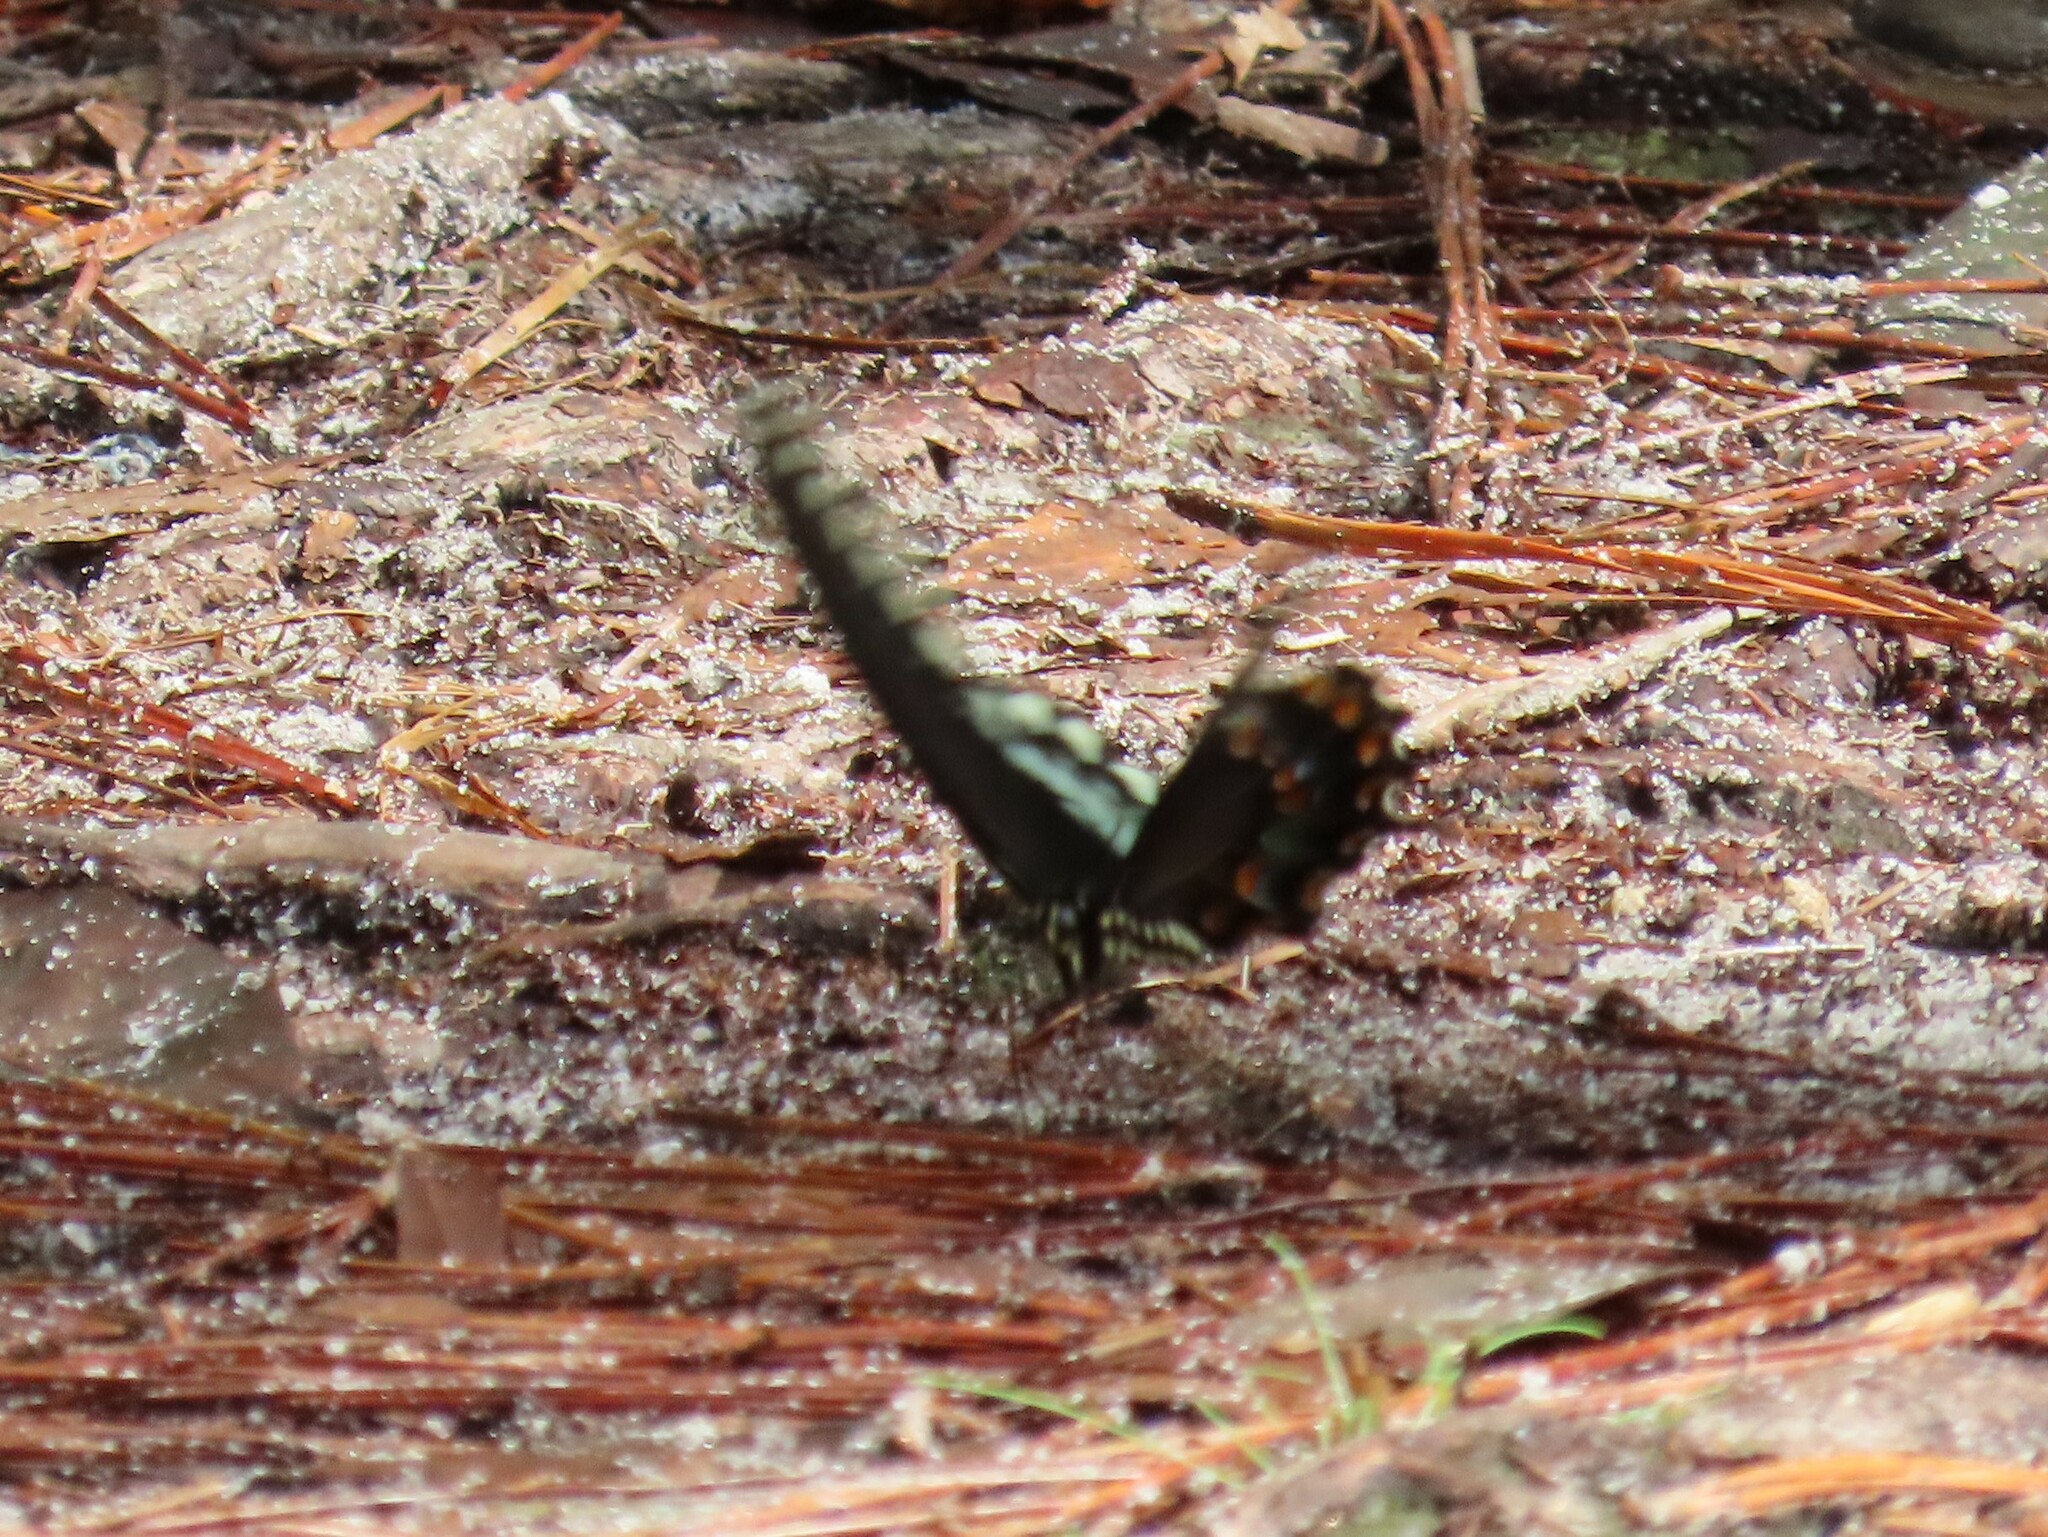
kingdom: Animalia
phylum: Arthropoda
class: Insecta
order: Lepidoptera
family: Papilionidae
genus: Papilio
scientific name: Papilio troilus
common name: Spicebush swallowtail
